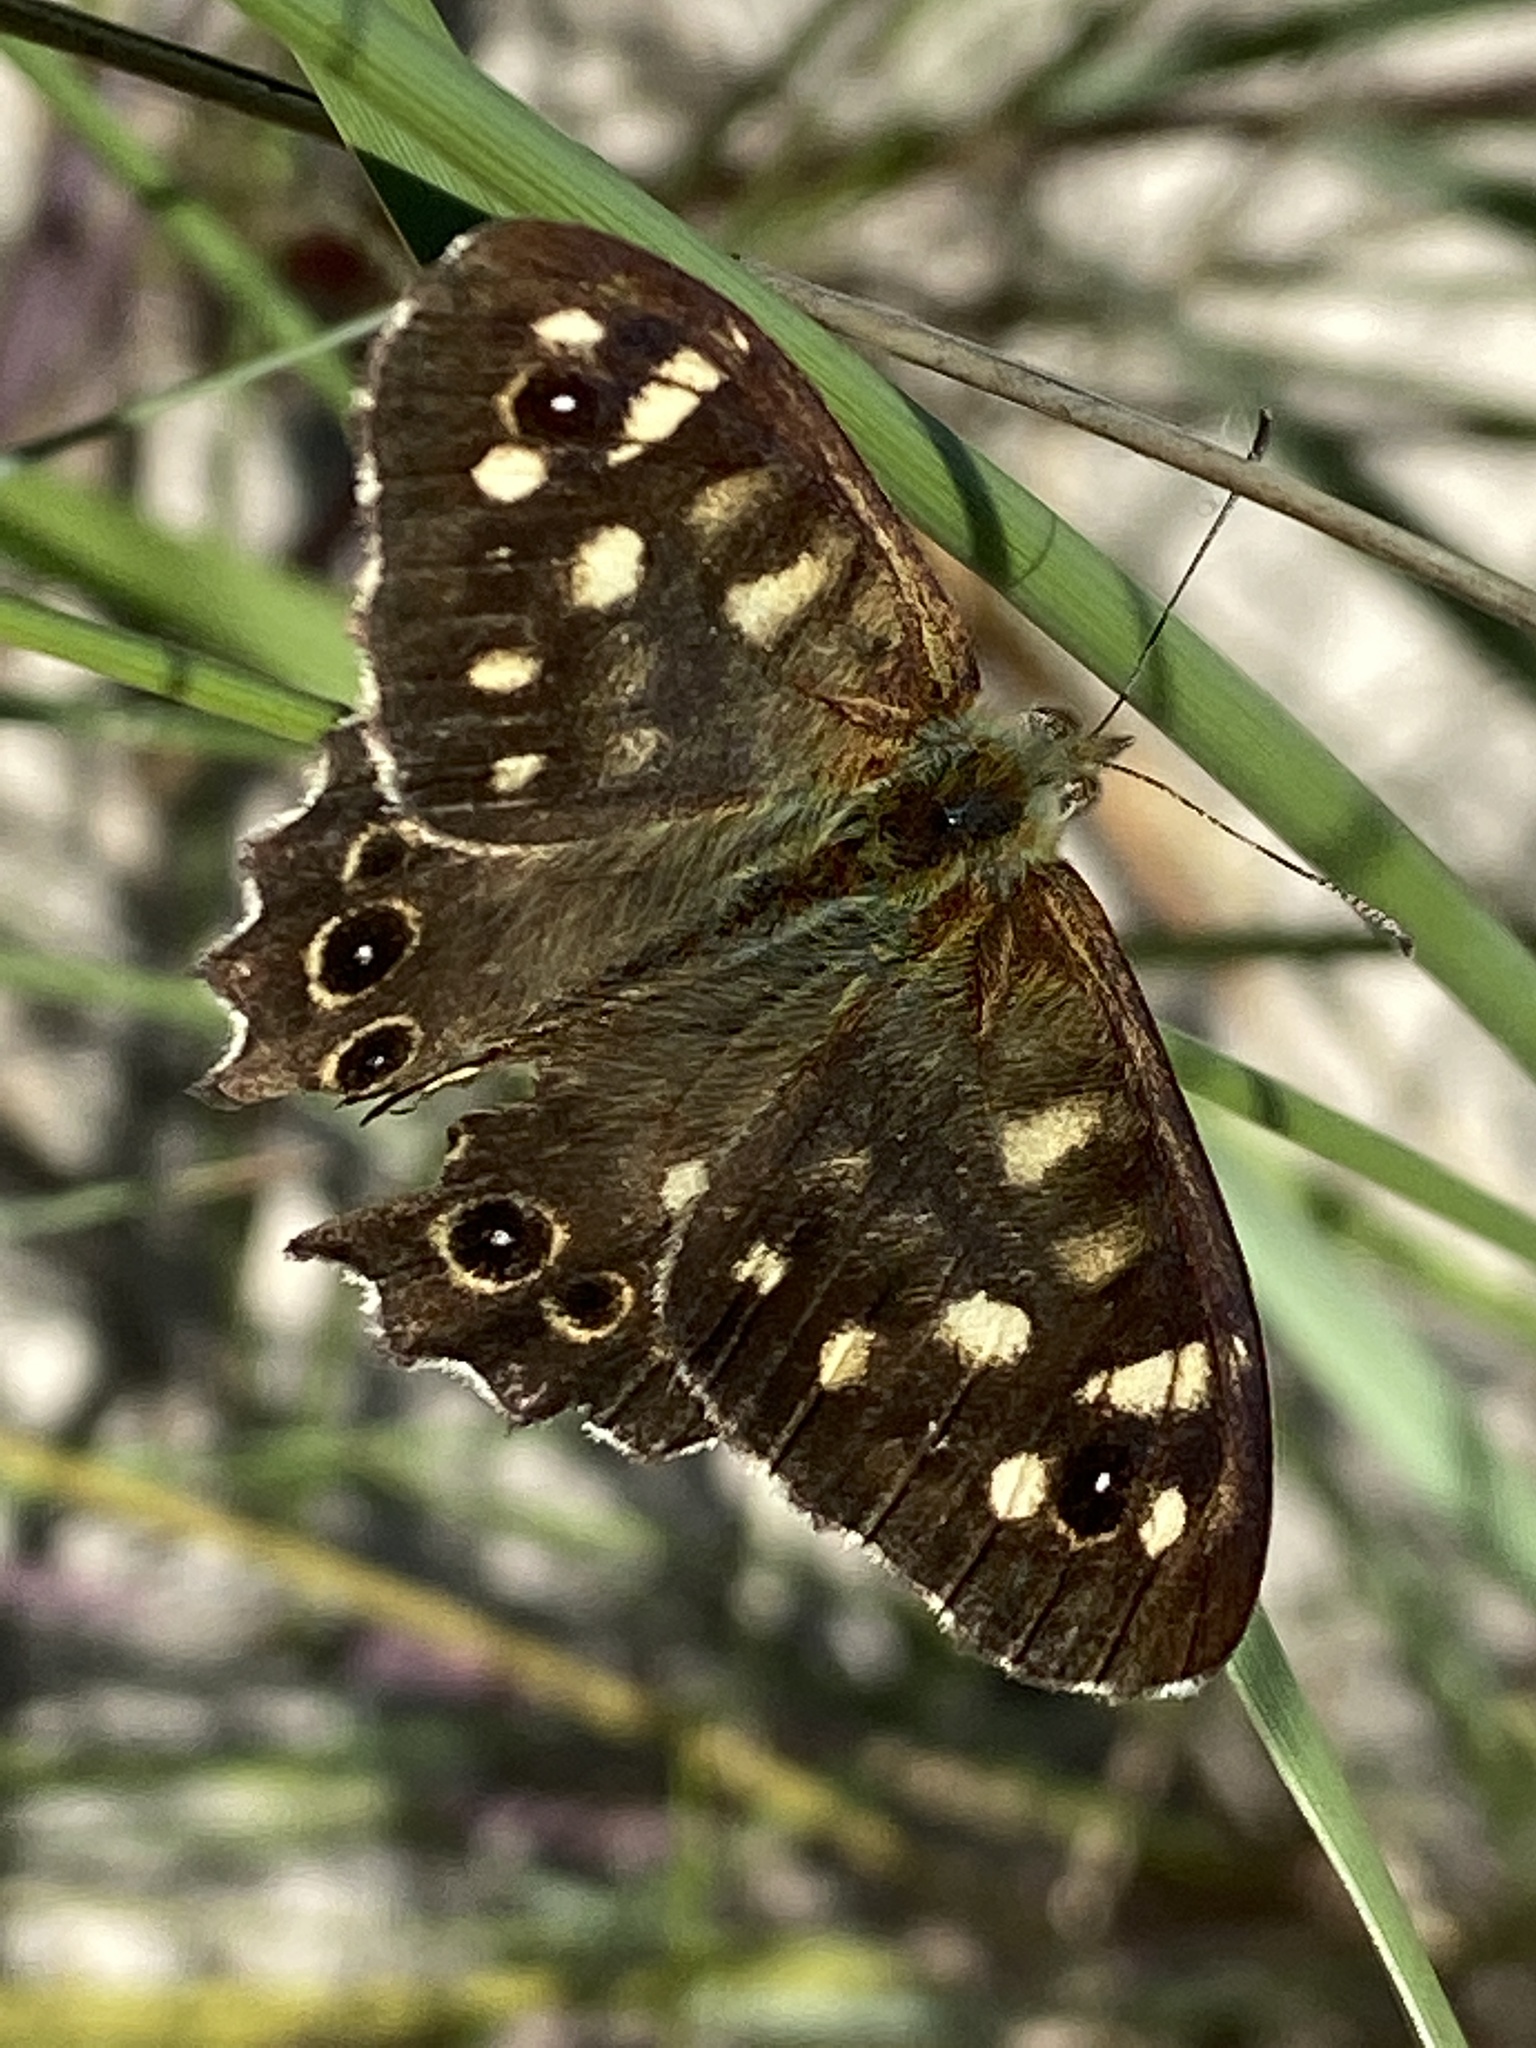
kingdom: Animalia
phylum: Arthropoda
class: Insecta
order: Lepidoptera
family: Nymphalidae
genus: Pararge
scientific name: Pararge aegeria
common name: Speckled wood
